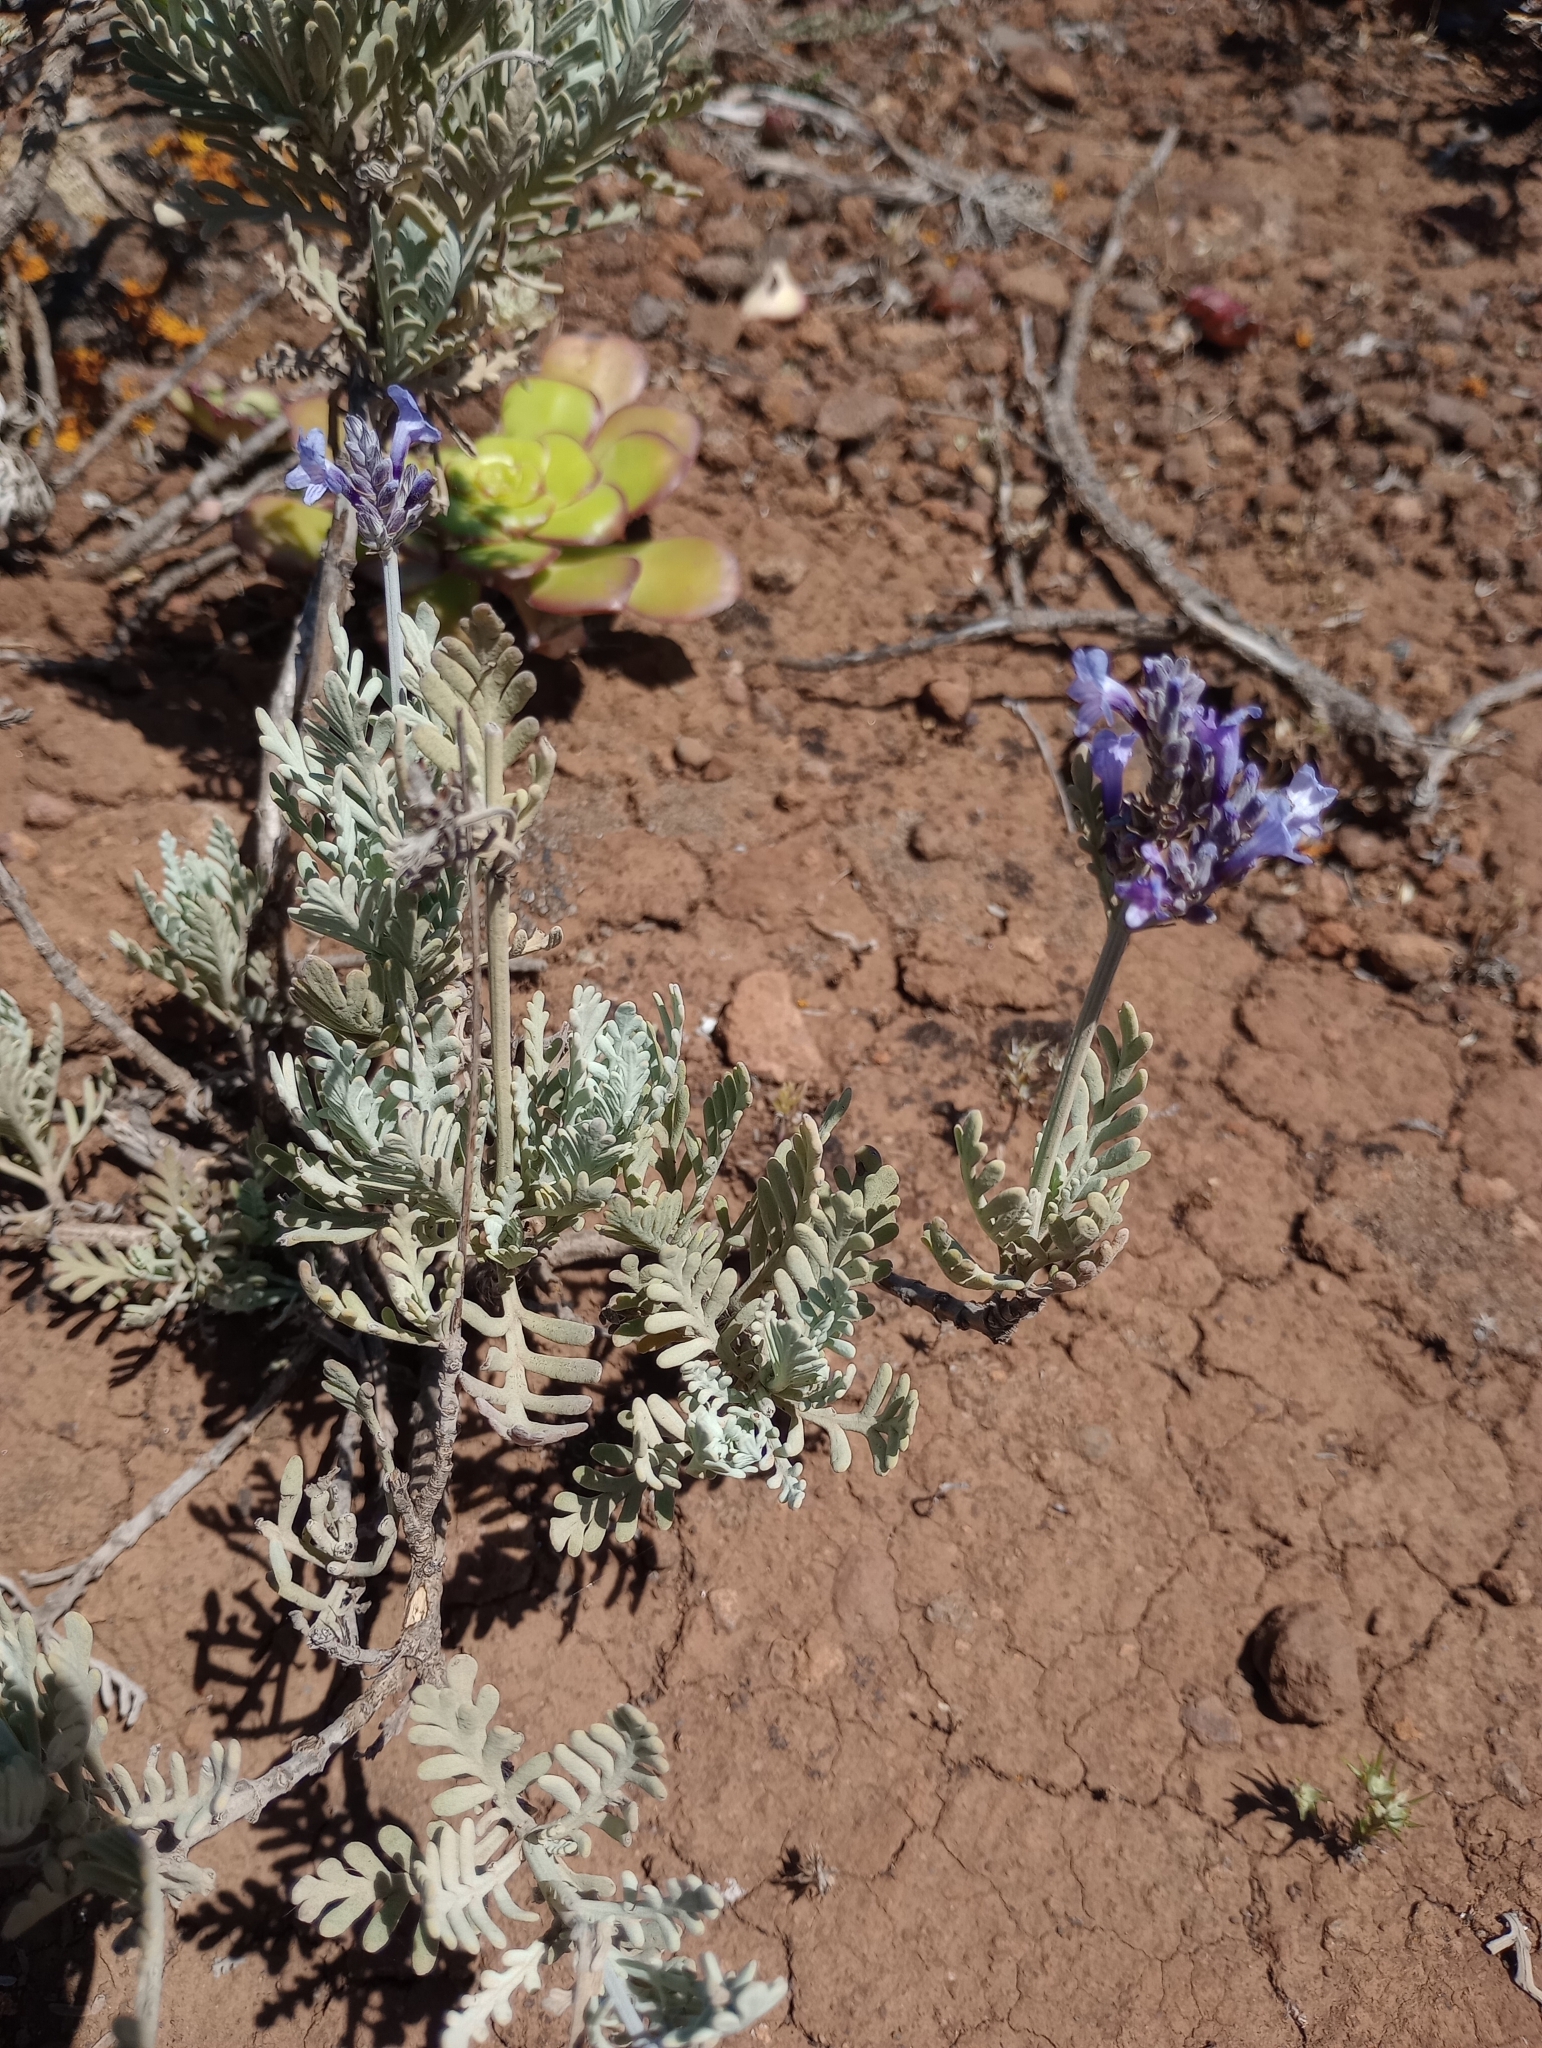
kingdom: Plantae
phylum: Tracheophyta
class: Magnoliopsida
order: Lamiales
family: Lamiaceae
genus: Lavandula
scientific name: Lavandula buchii
